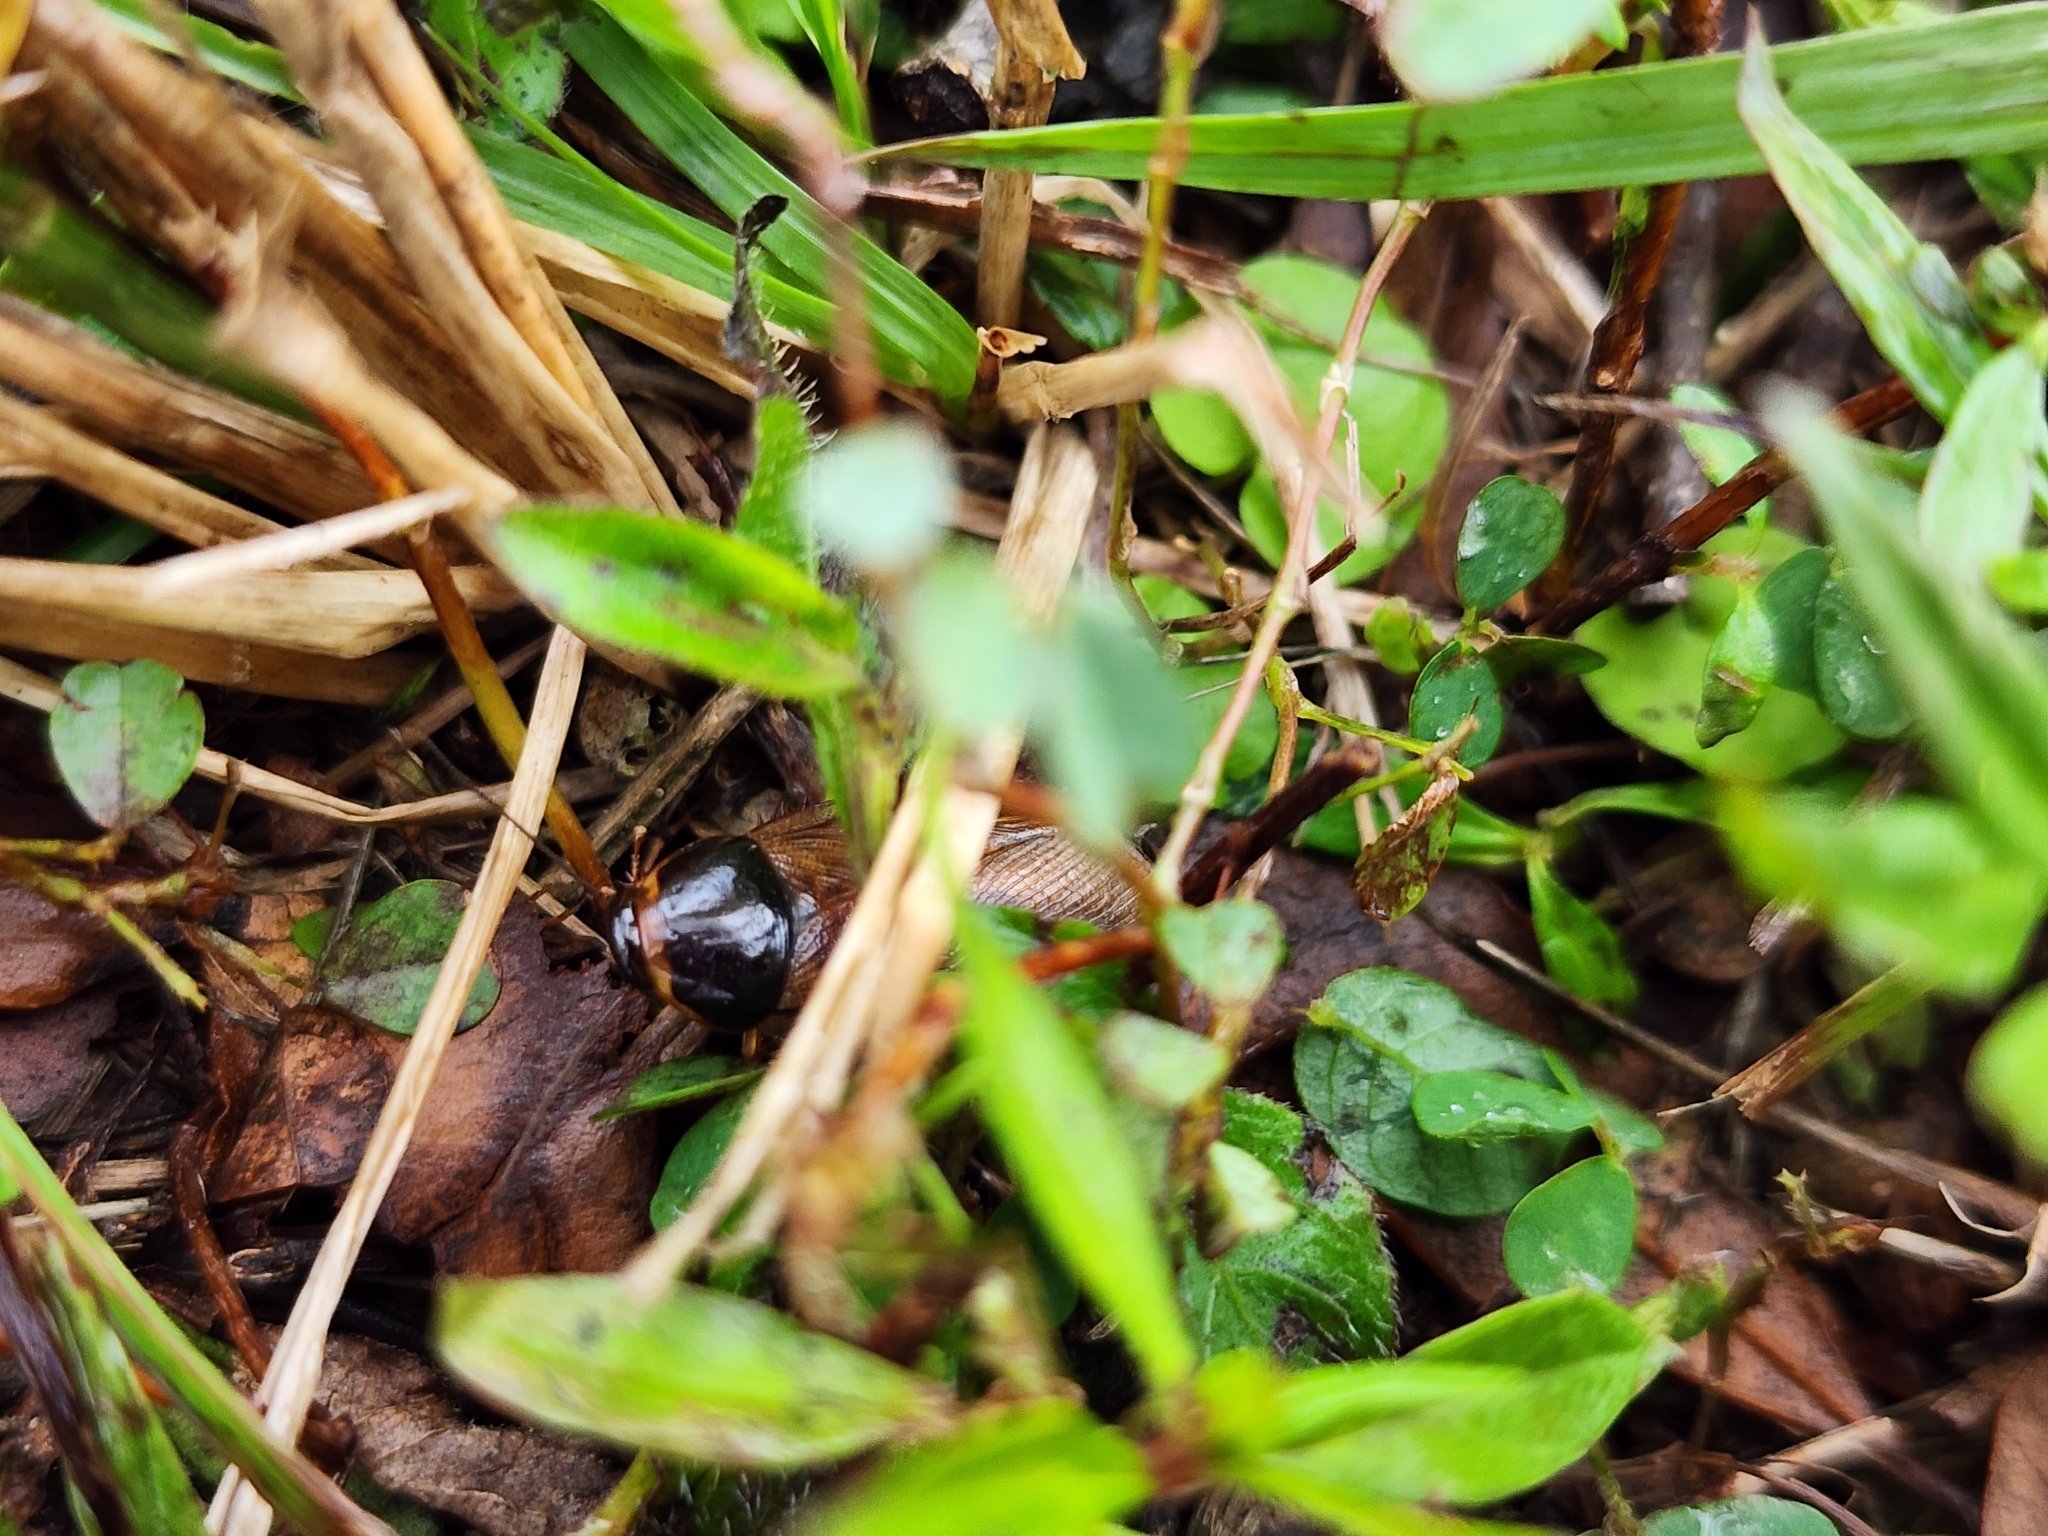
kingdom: Animalia
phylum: Arthropoda
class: Insecta
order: Blattodea
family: Blaberidae
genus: Pycnoscelus
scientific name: Pycnoscelus surinamensis
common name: Surinam cockroach
